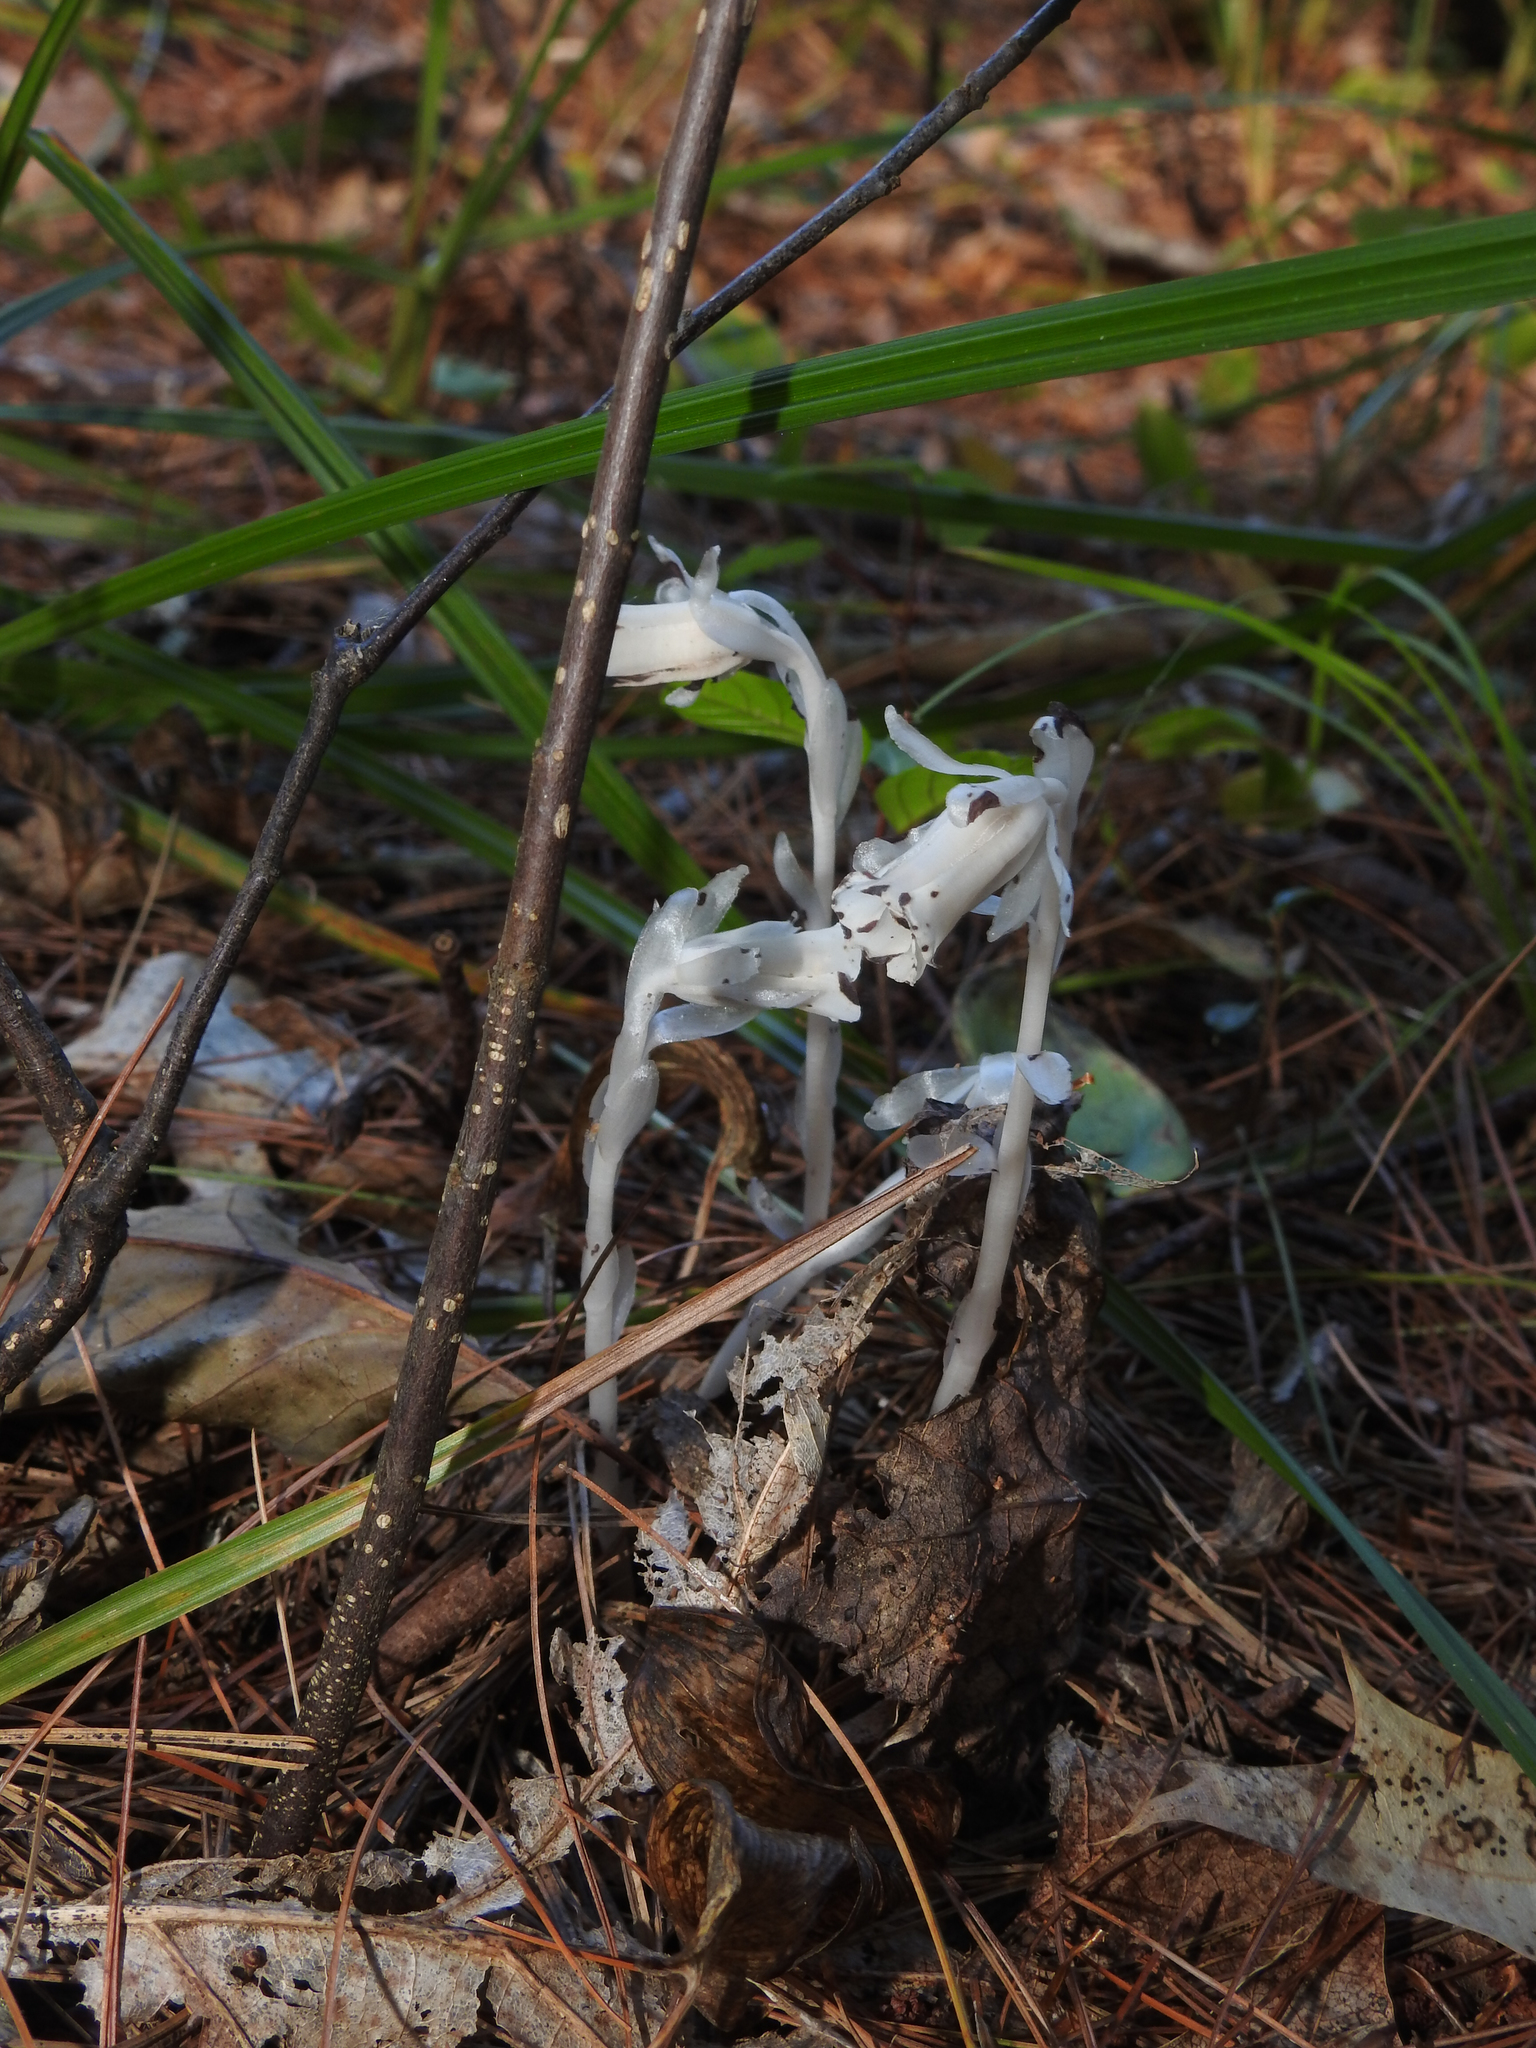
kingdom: Plantae
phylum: Tracheophyta
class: Magnoliopsida
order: Ericales
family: Ericaceae
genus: Monotropa
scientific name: Monotropa uniflora
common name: Convulsion root
